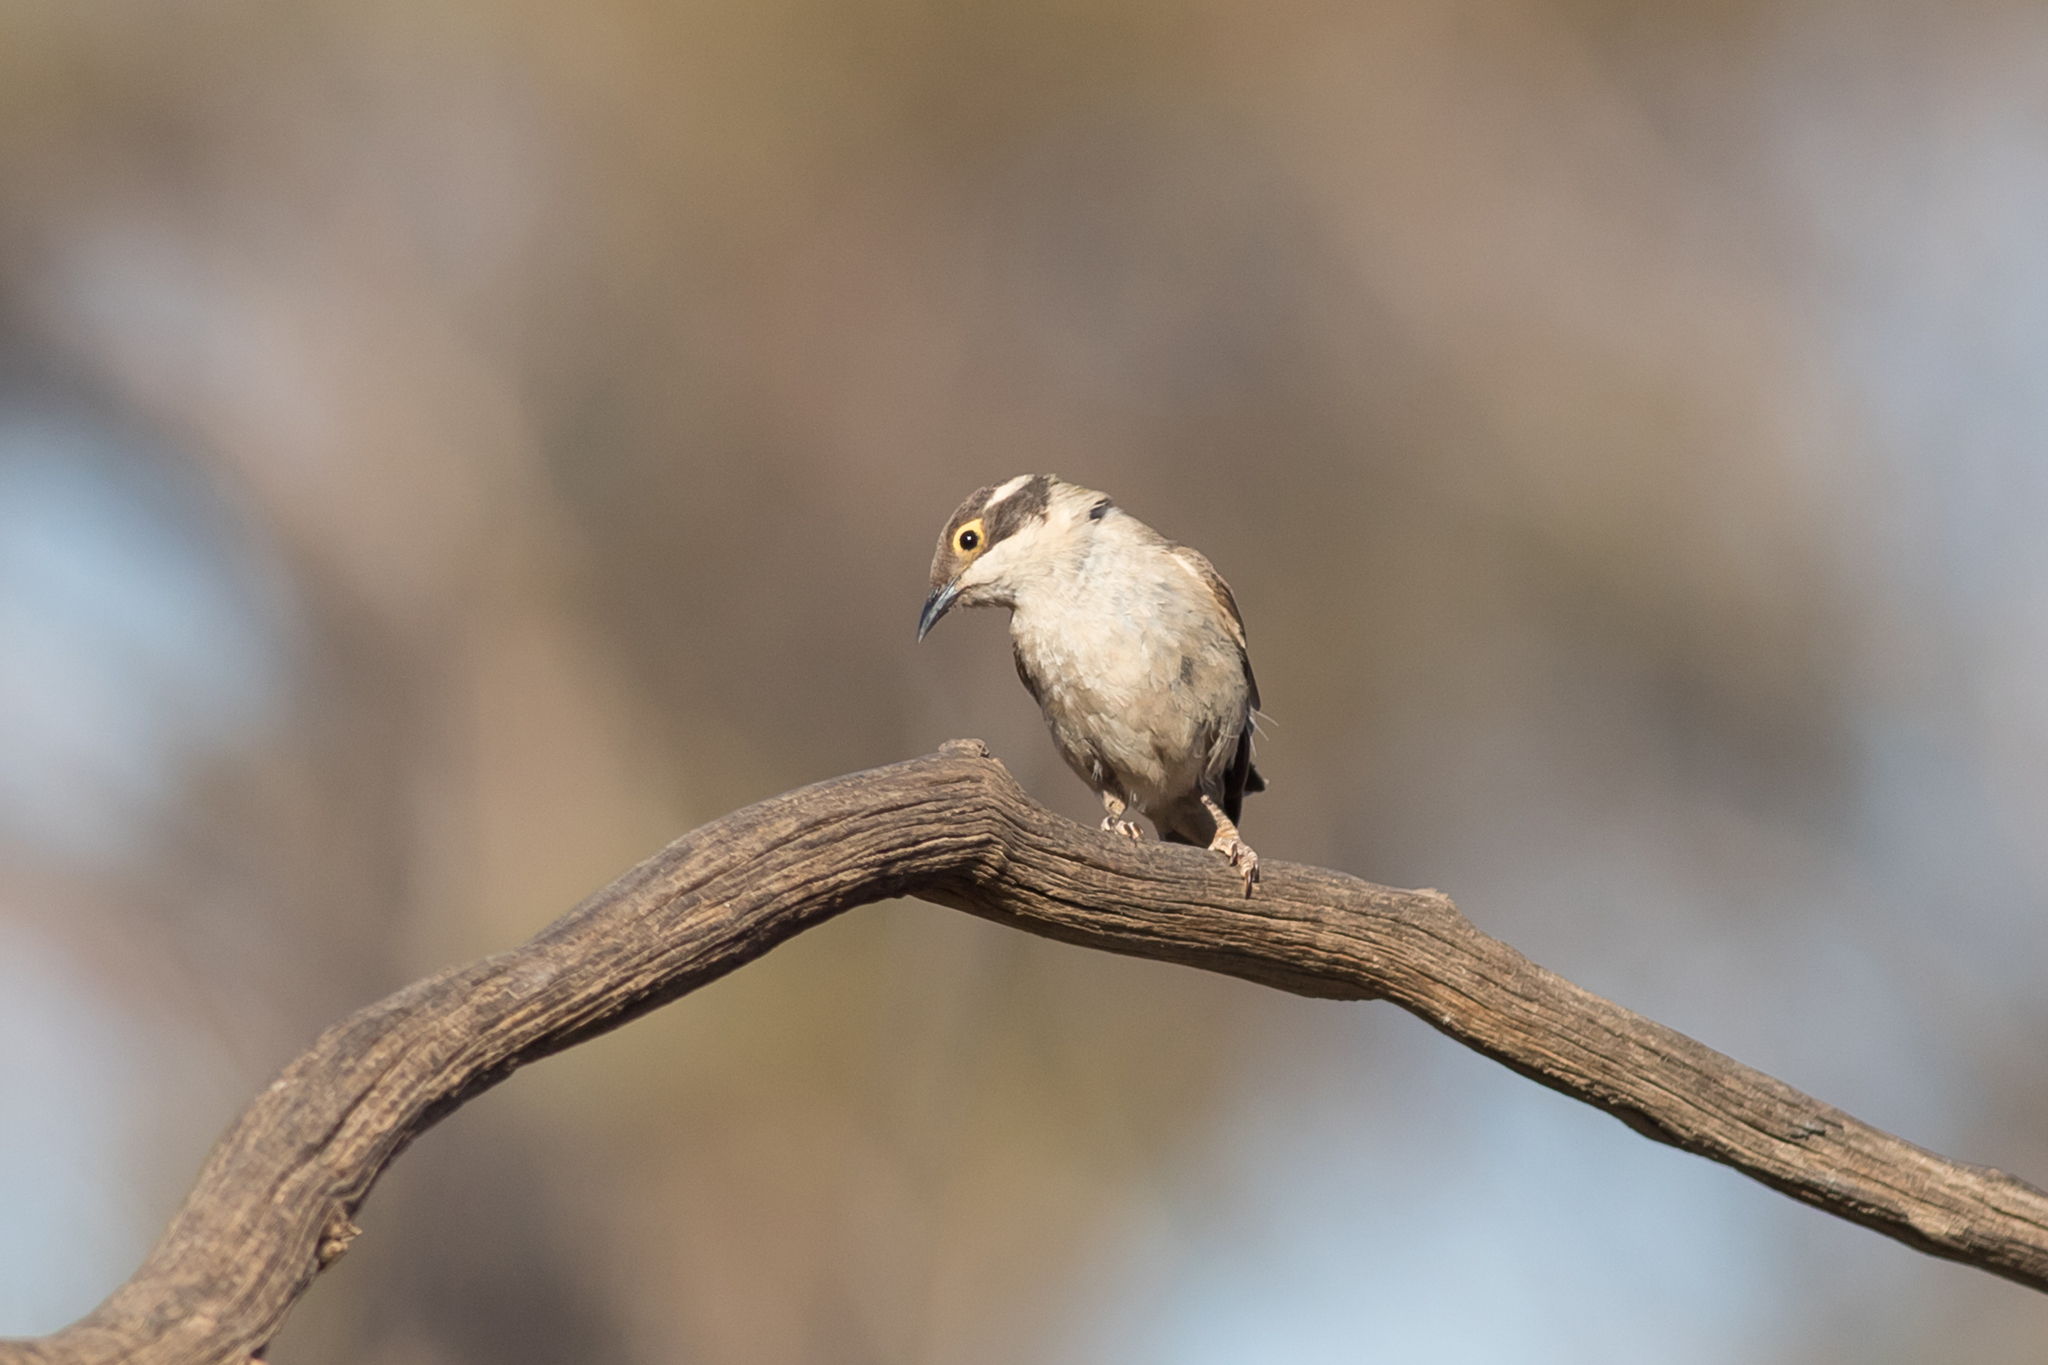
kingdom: Animalia
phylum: Chordata
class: Aves
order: Passeriformes
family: Meliphagidae
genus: Melithreptus
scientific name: Melithreptus brevirostris
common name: Brown-headed honeyeater
